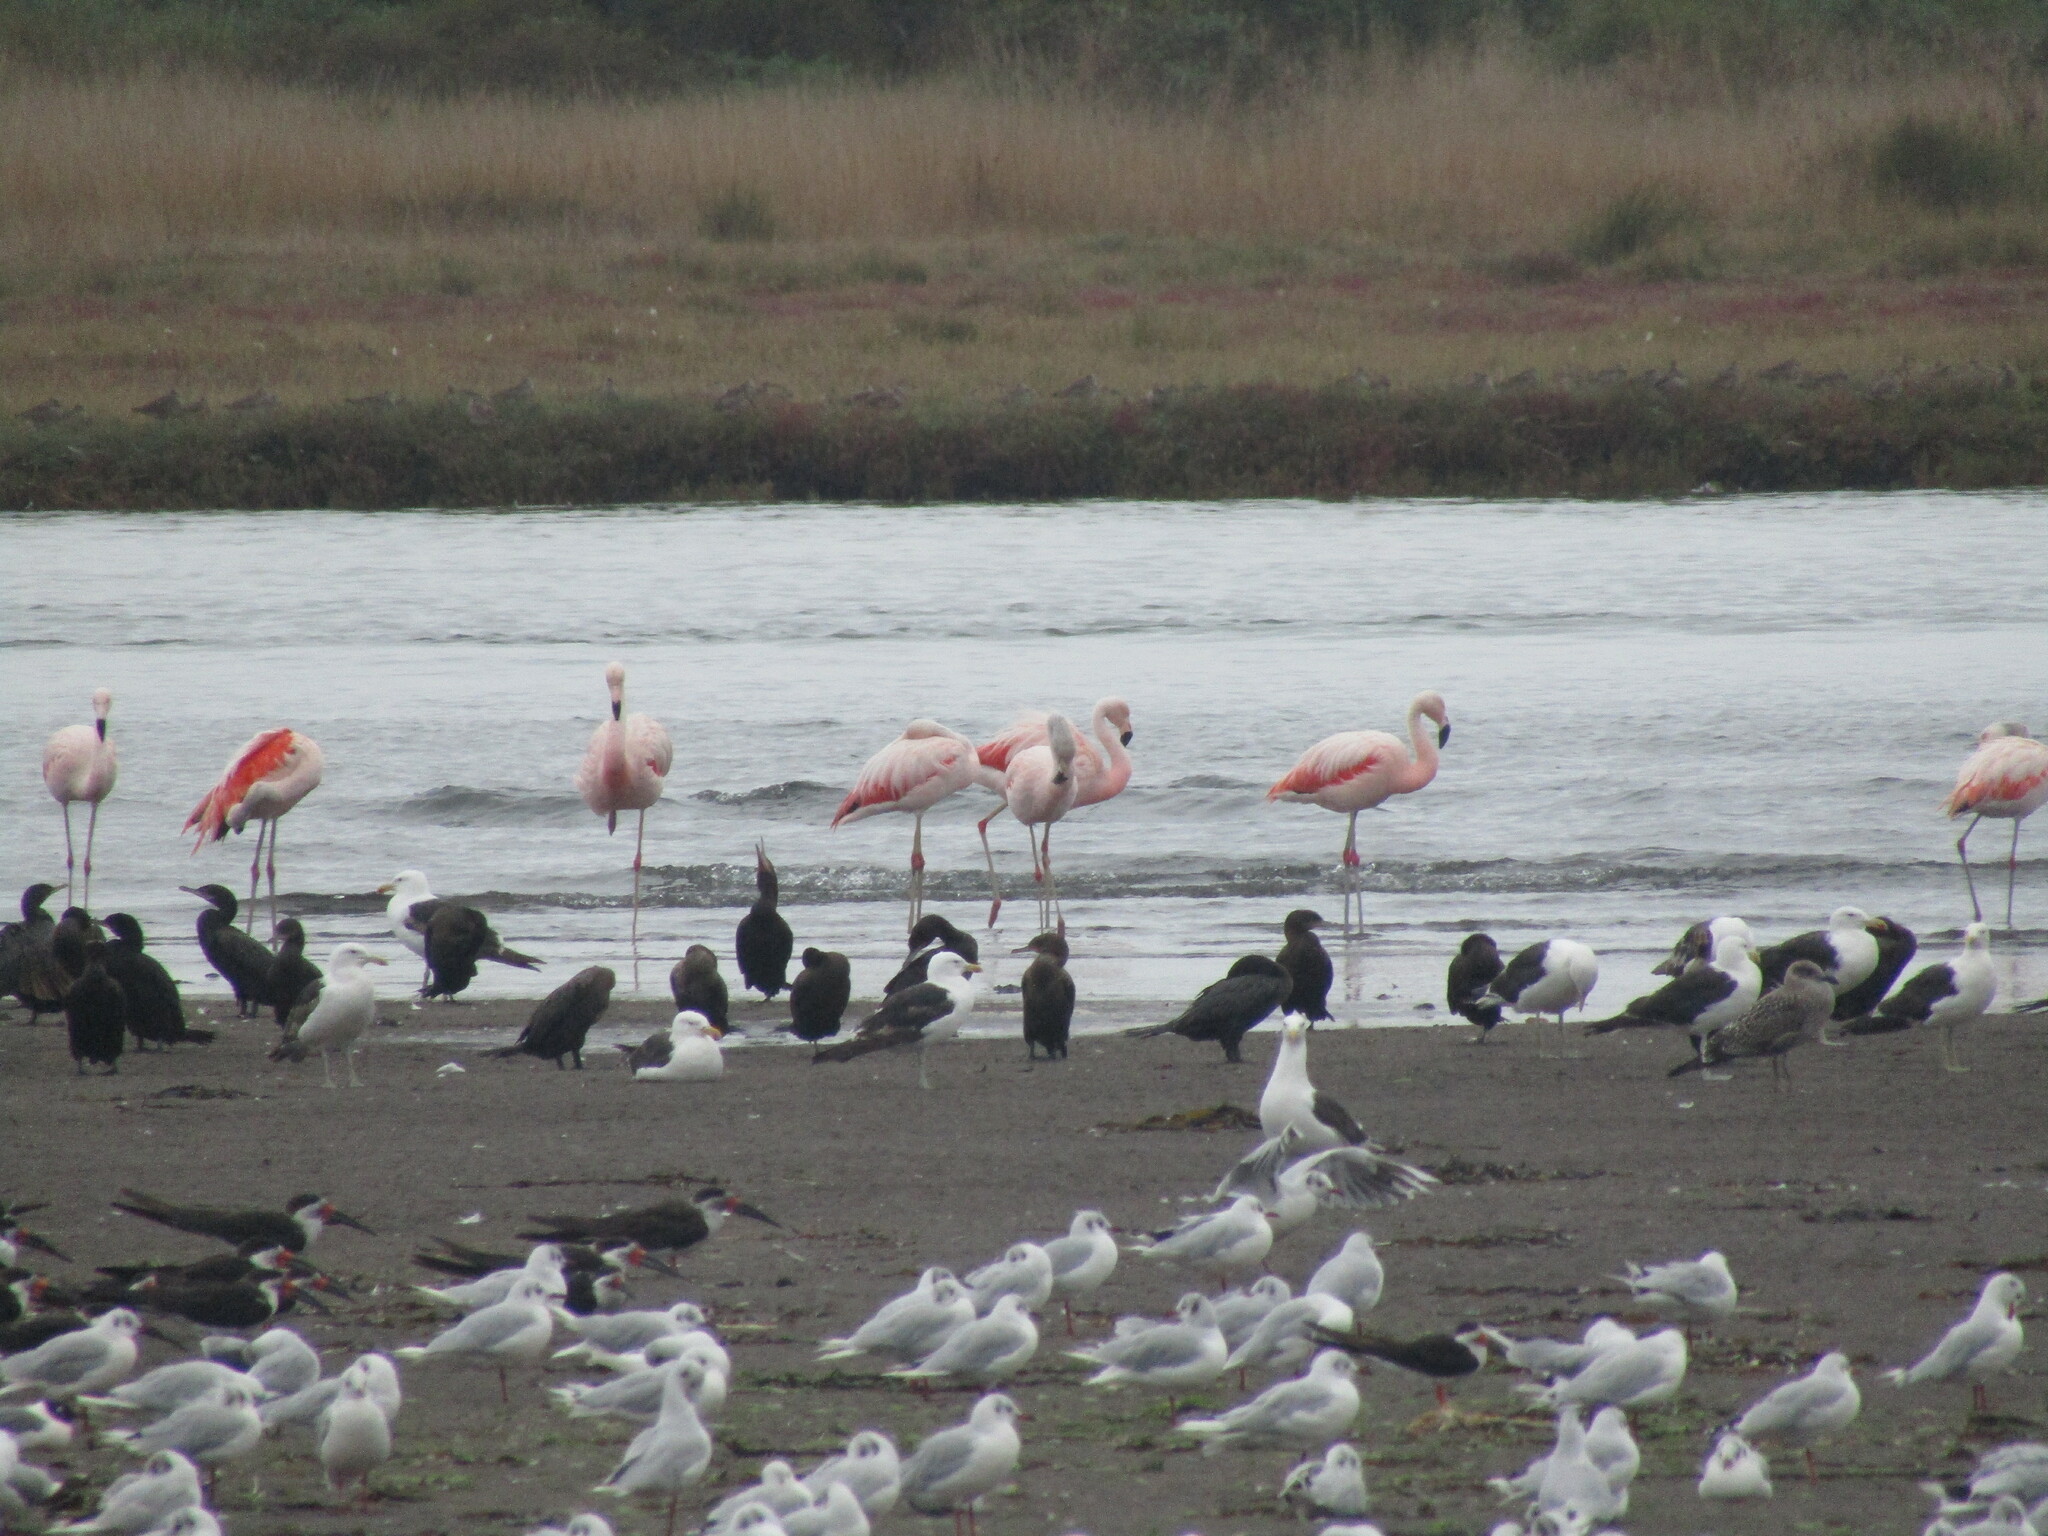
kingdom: Animalia
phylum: Chordata
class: Aves
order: Phoenicopteriformes
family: Phoenicopteridae
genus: Phoenicopterus
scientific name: Phoenicopterus chilensis
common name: Chilean flamingo
